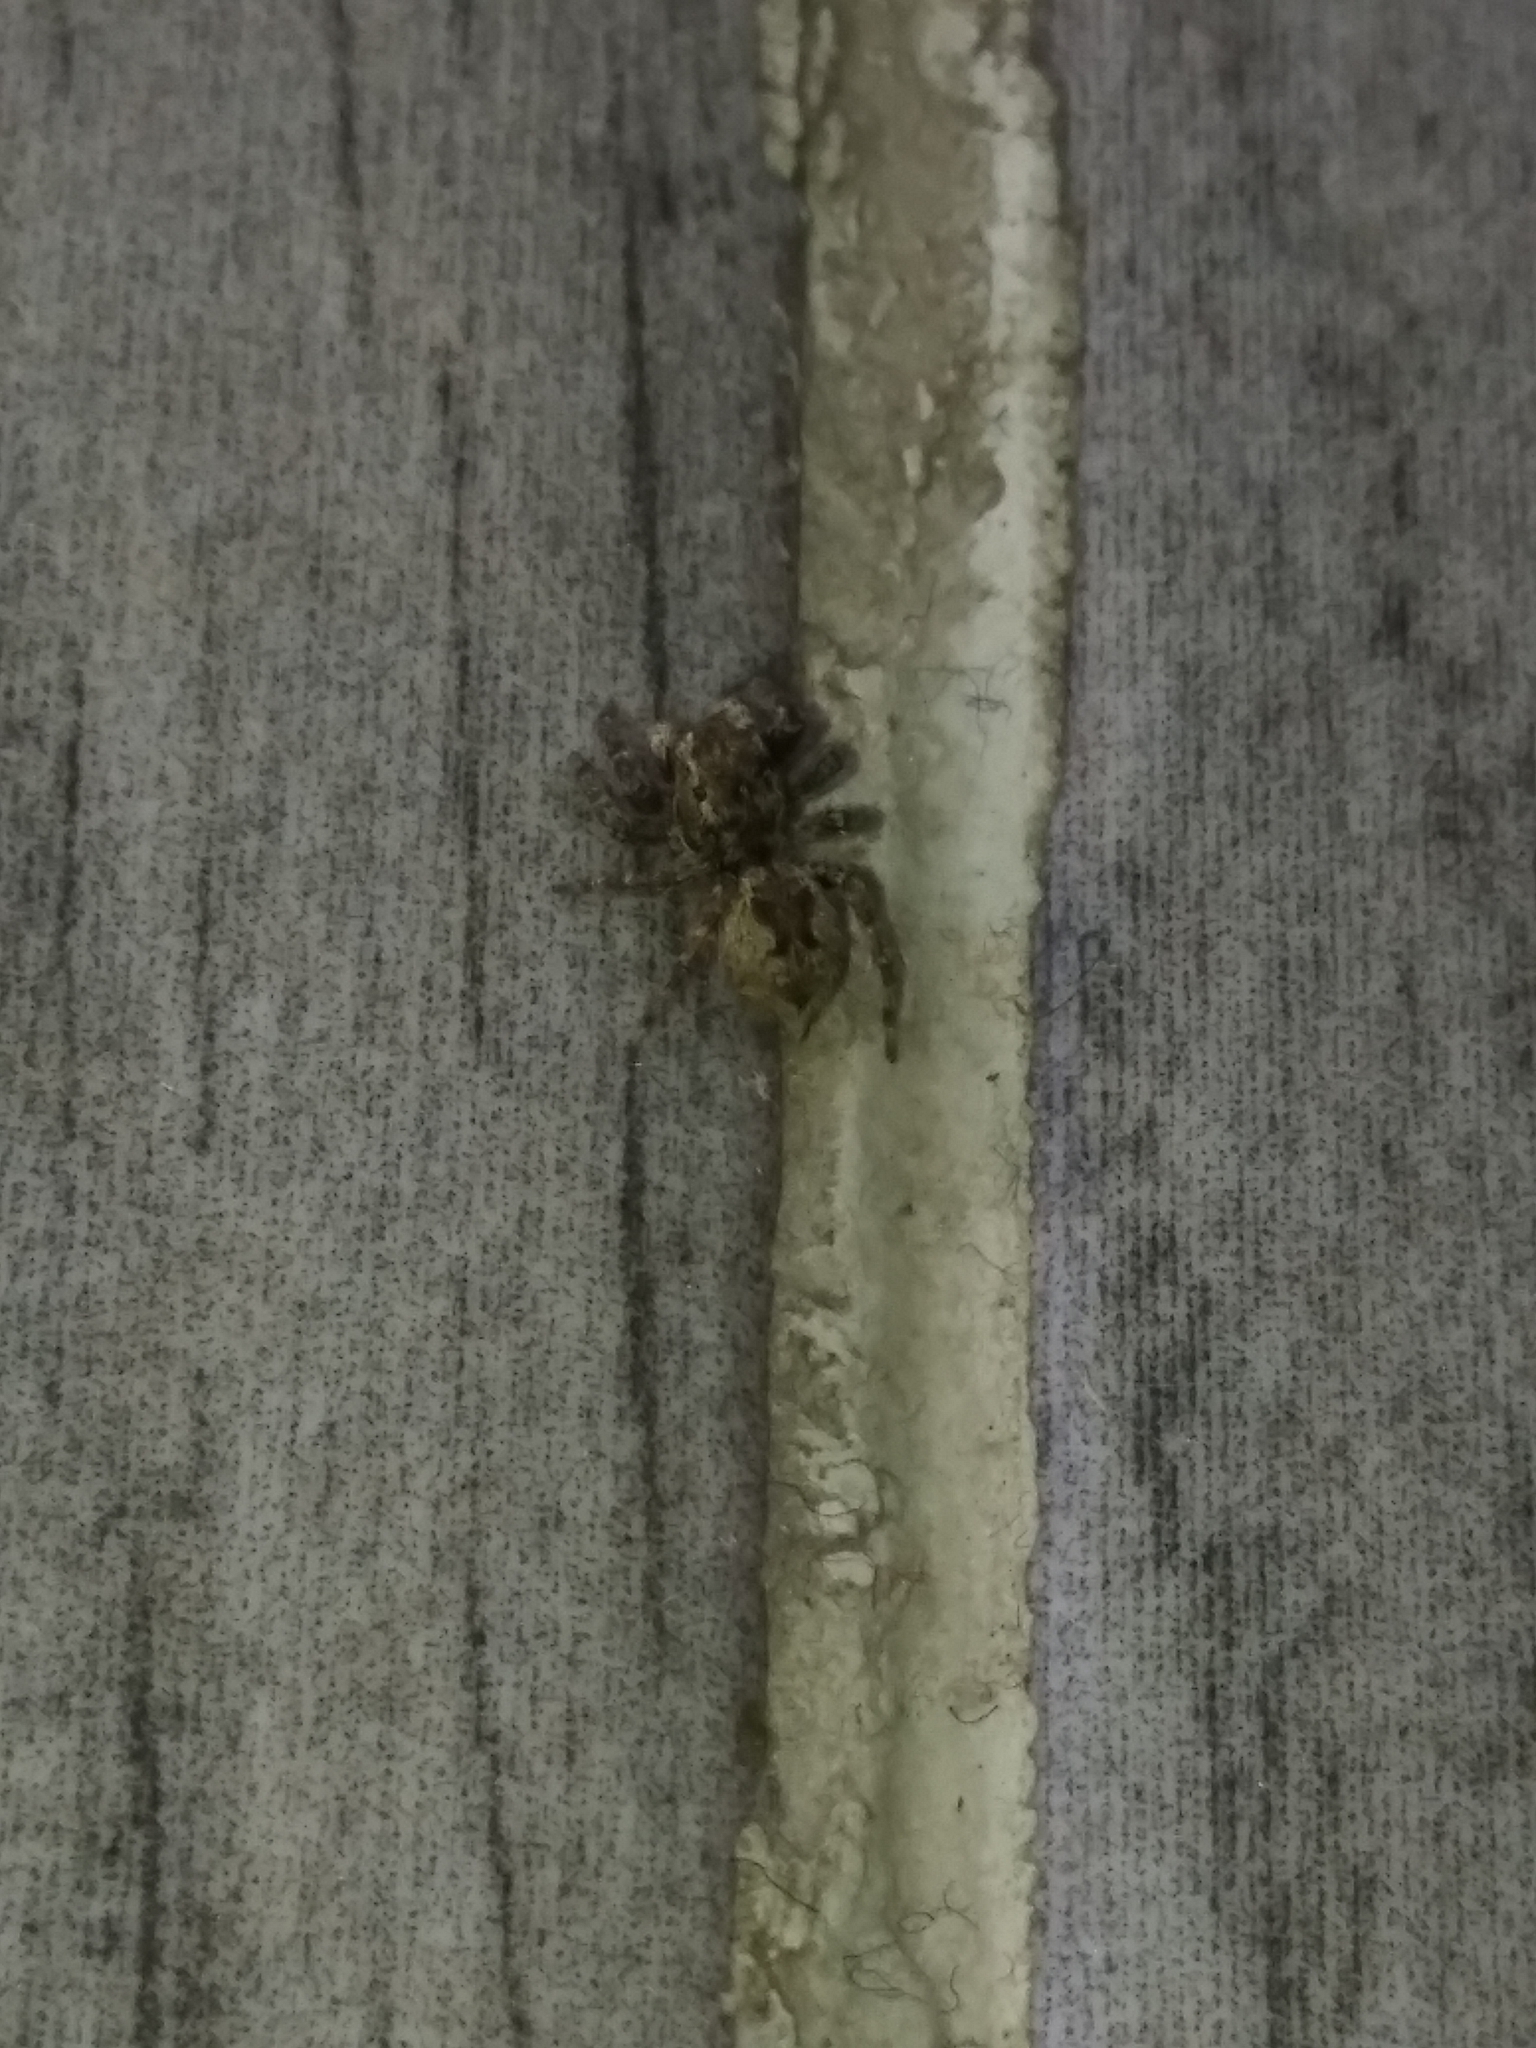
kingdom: Animalia
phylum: Arthropoda
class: Arachnida
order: Araneae
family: Salticidae
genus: Mexigonus
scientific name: Mexigonus minutus
